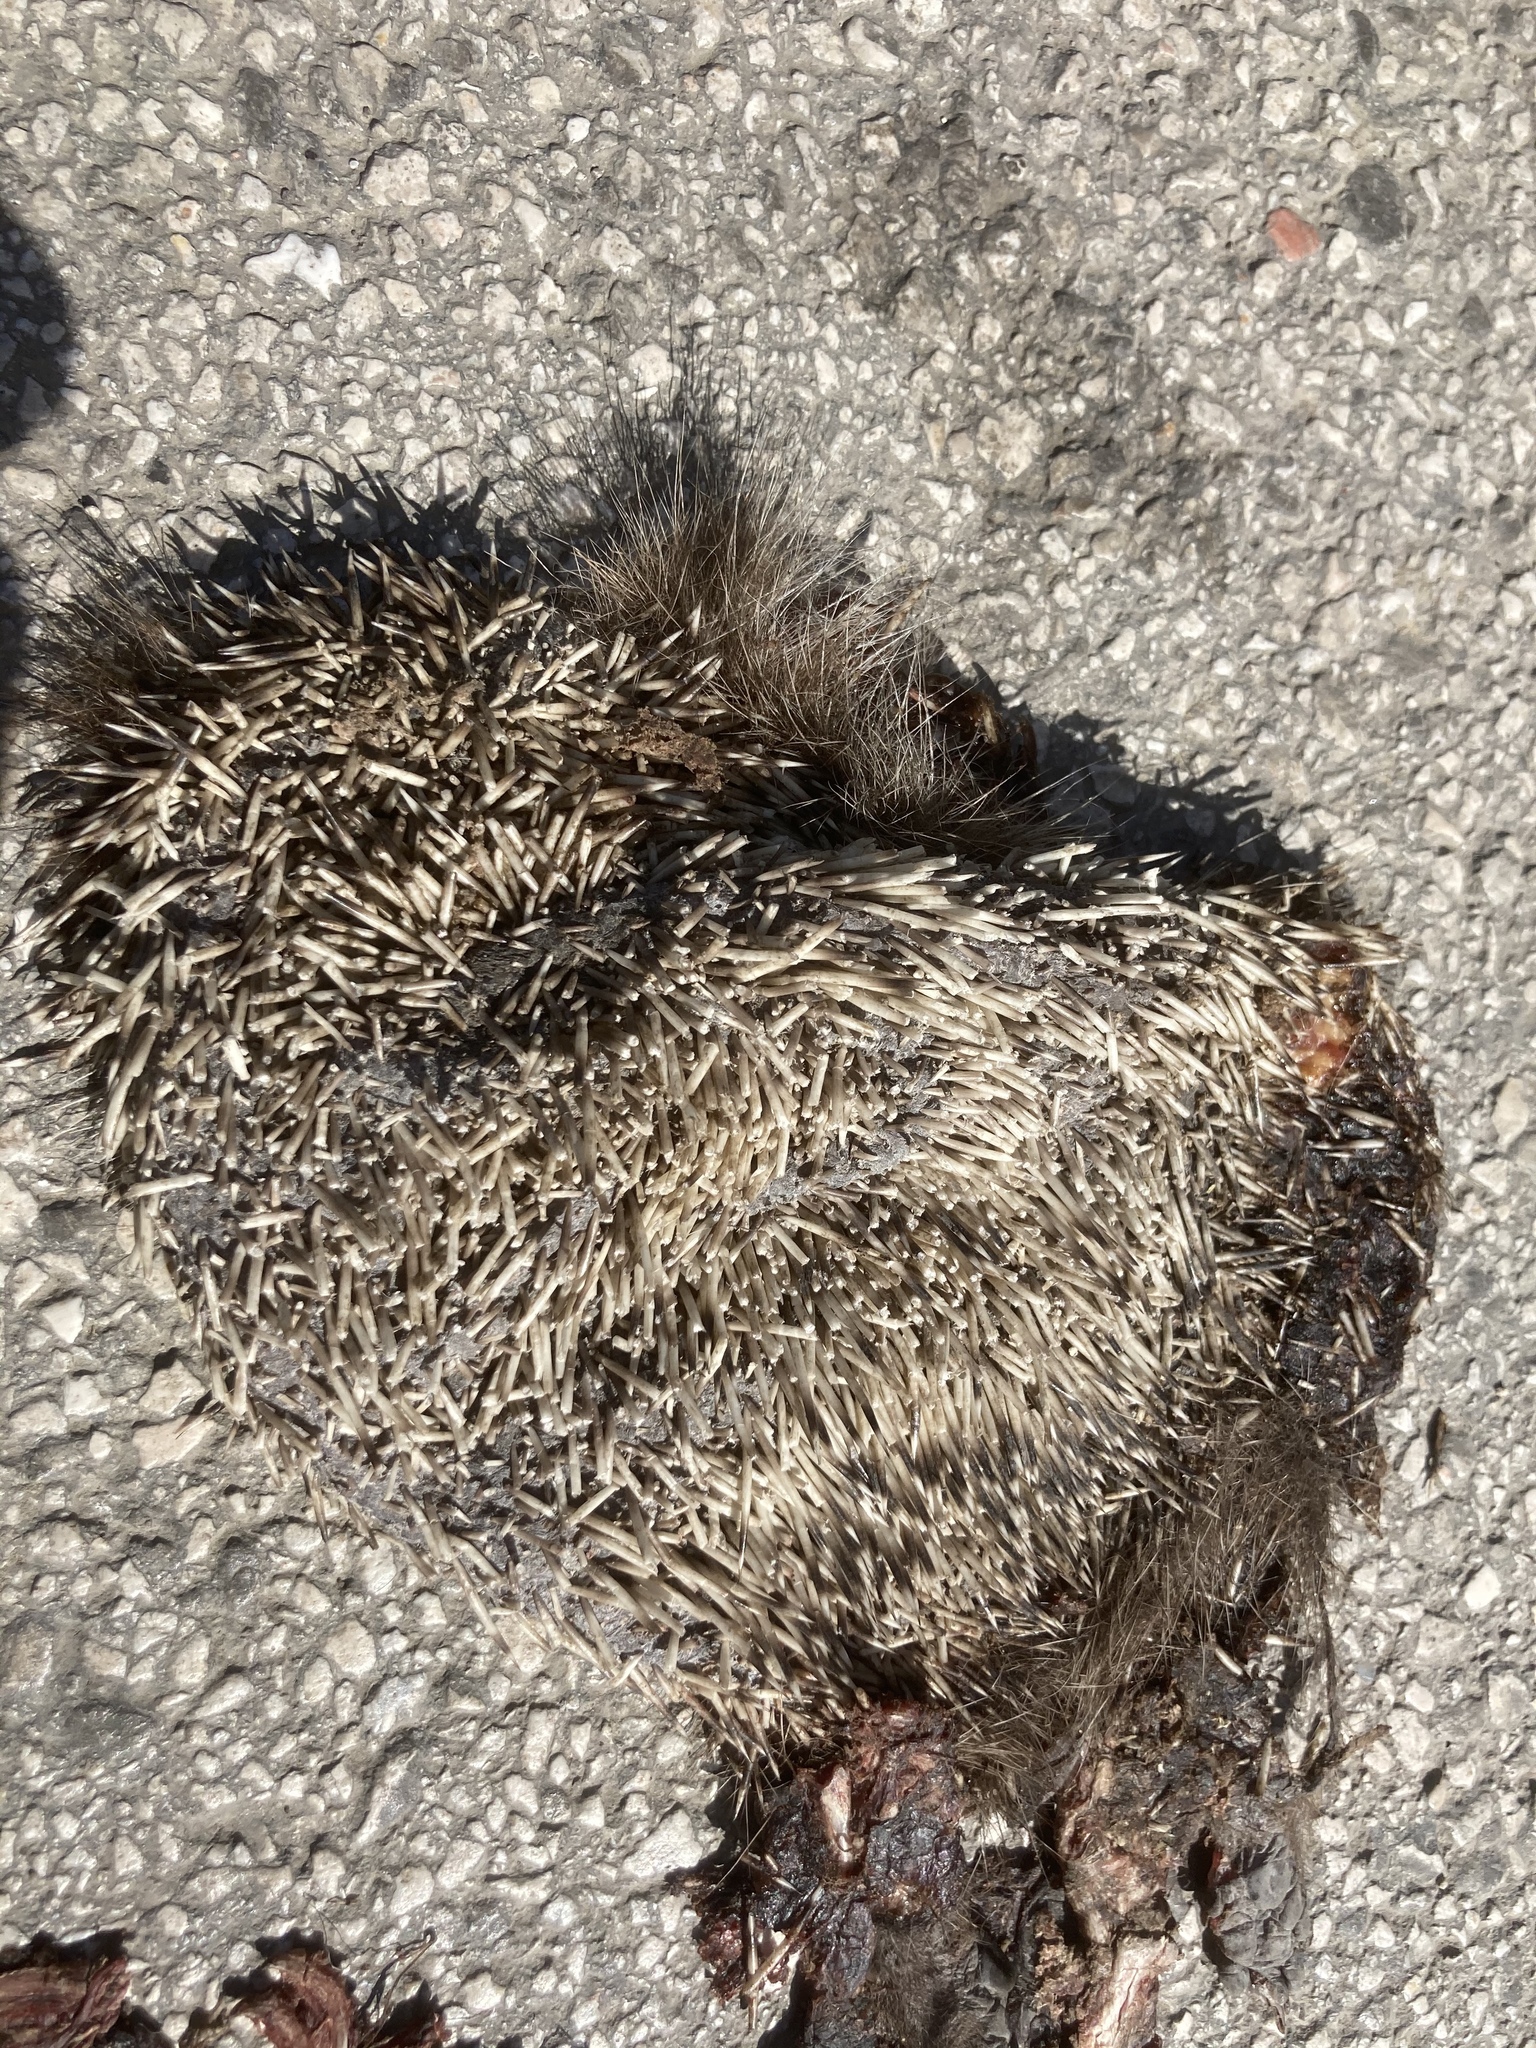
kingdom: Animalia
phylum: Chordata
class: Mammalia
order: Erinaceomorpha
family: Erinaceidae
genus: Erinaceus
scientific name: Erinaceus roumanicus
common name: Northern white-breasted hedgehog
